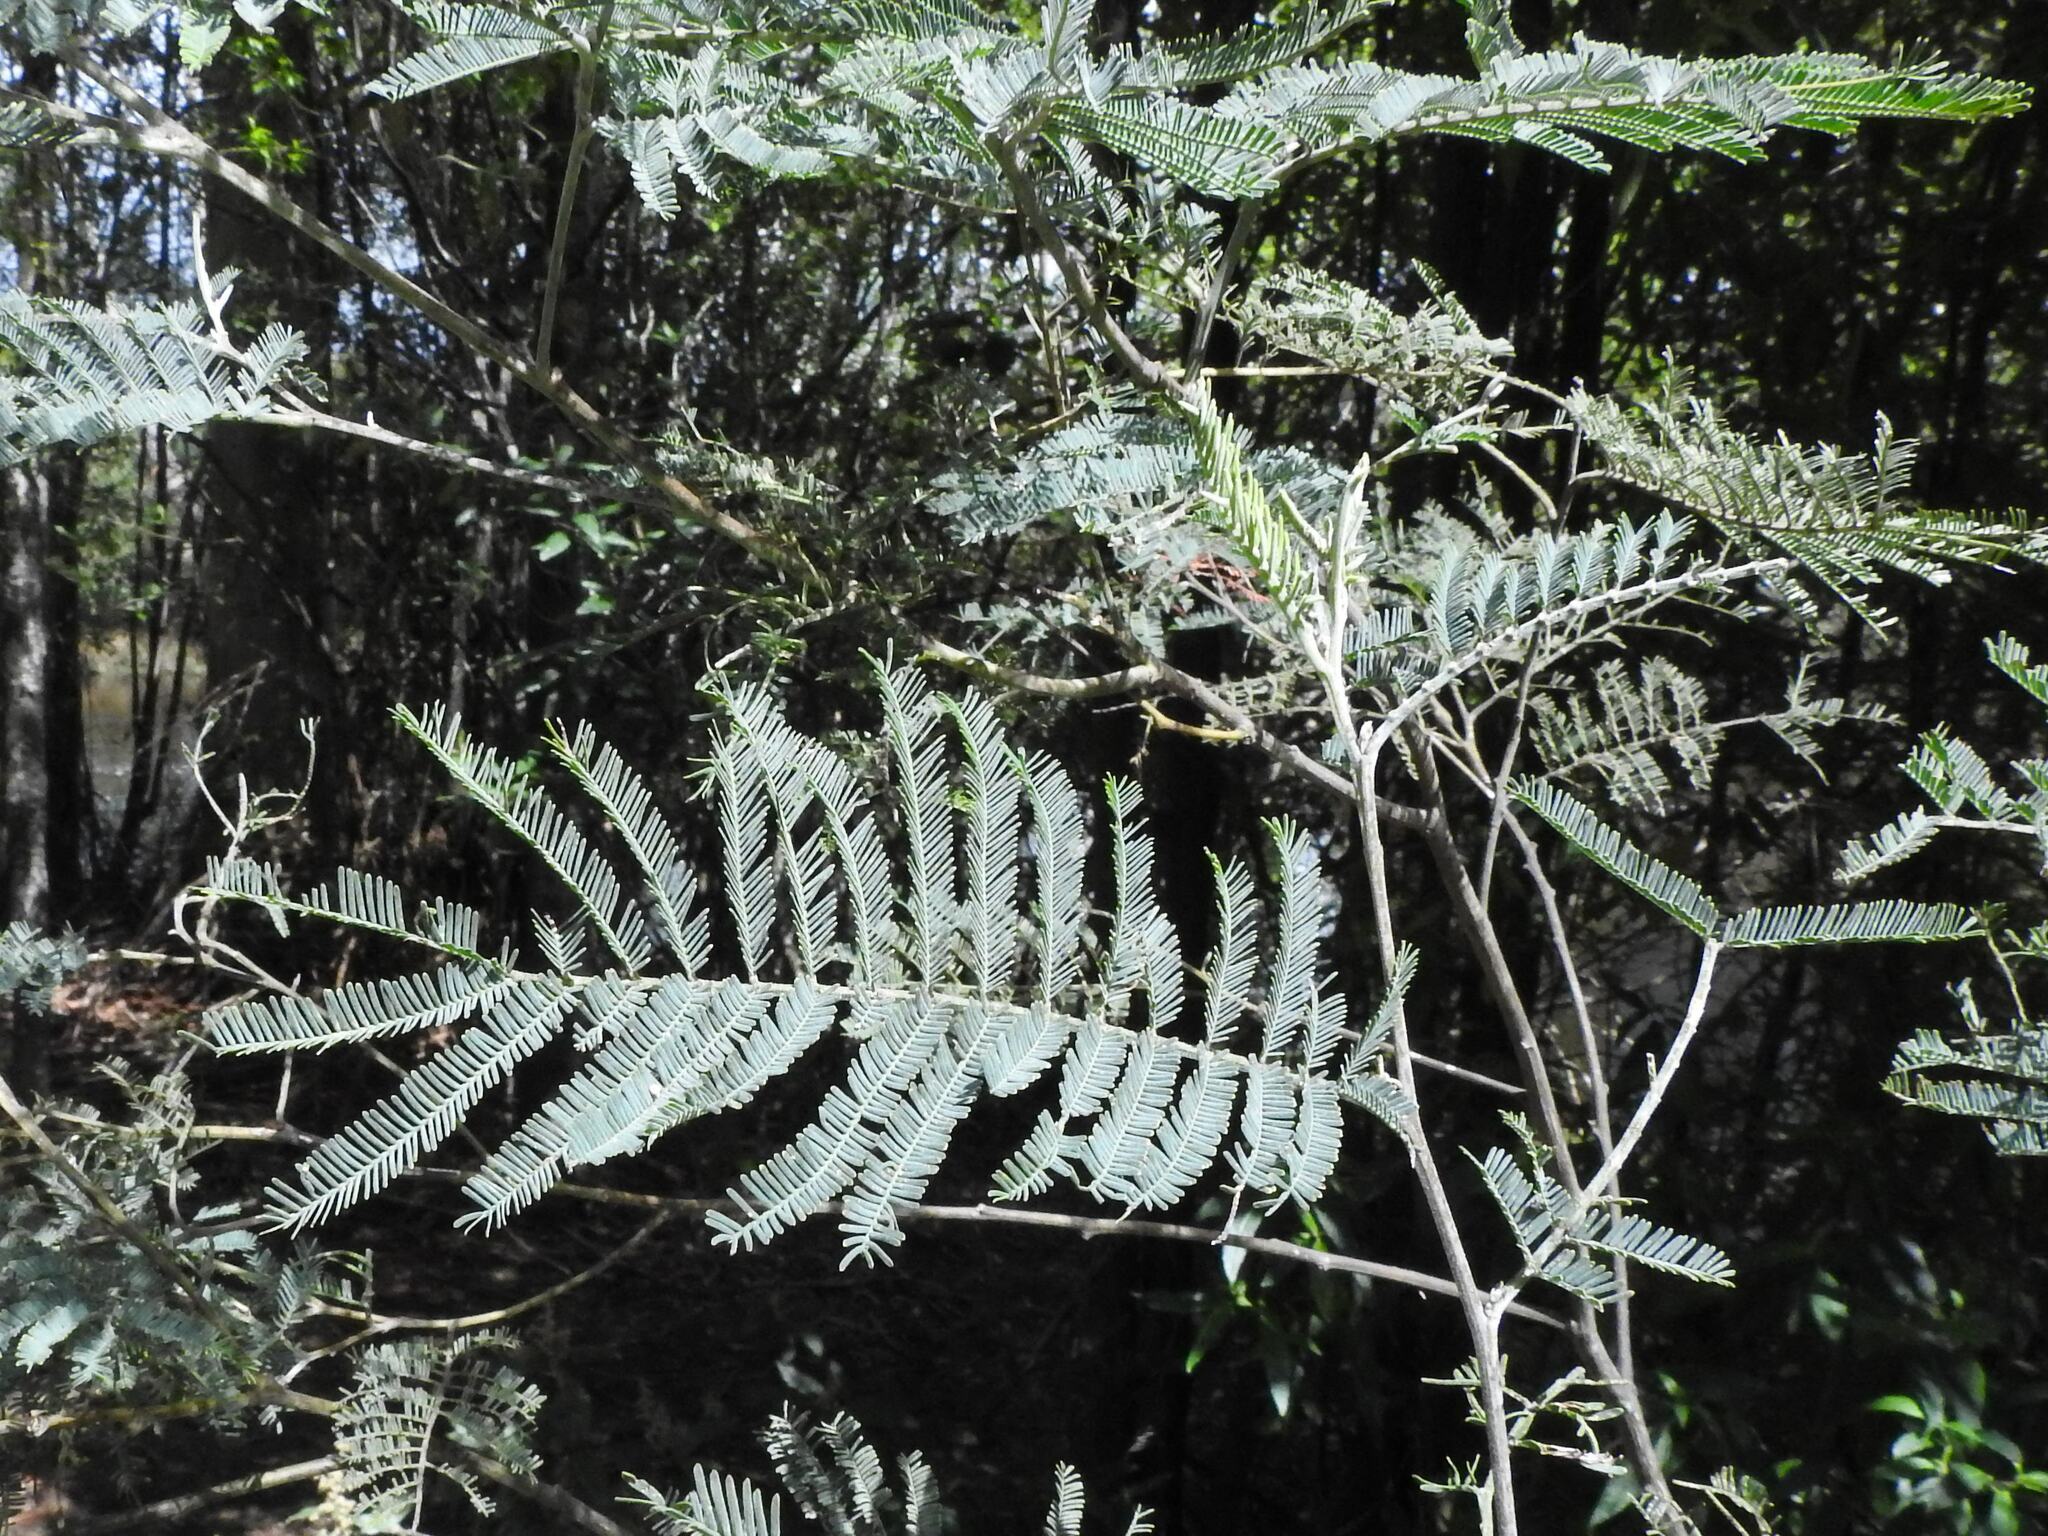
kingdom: Plantae
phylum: Tracheophyta
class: Magnoliopsida
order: Fabales
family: Fabaceae
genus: Acacia
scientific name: Acacia dealbata
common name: Silver wattle
